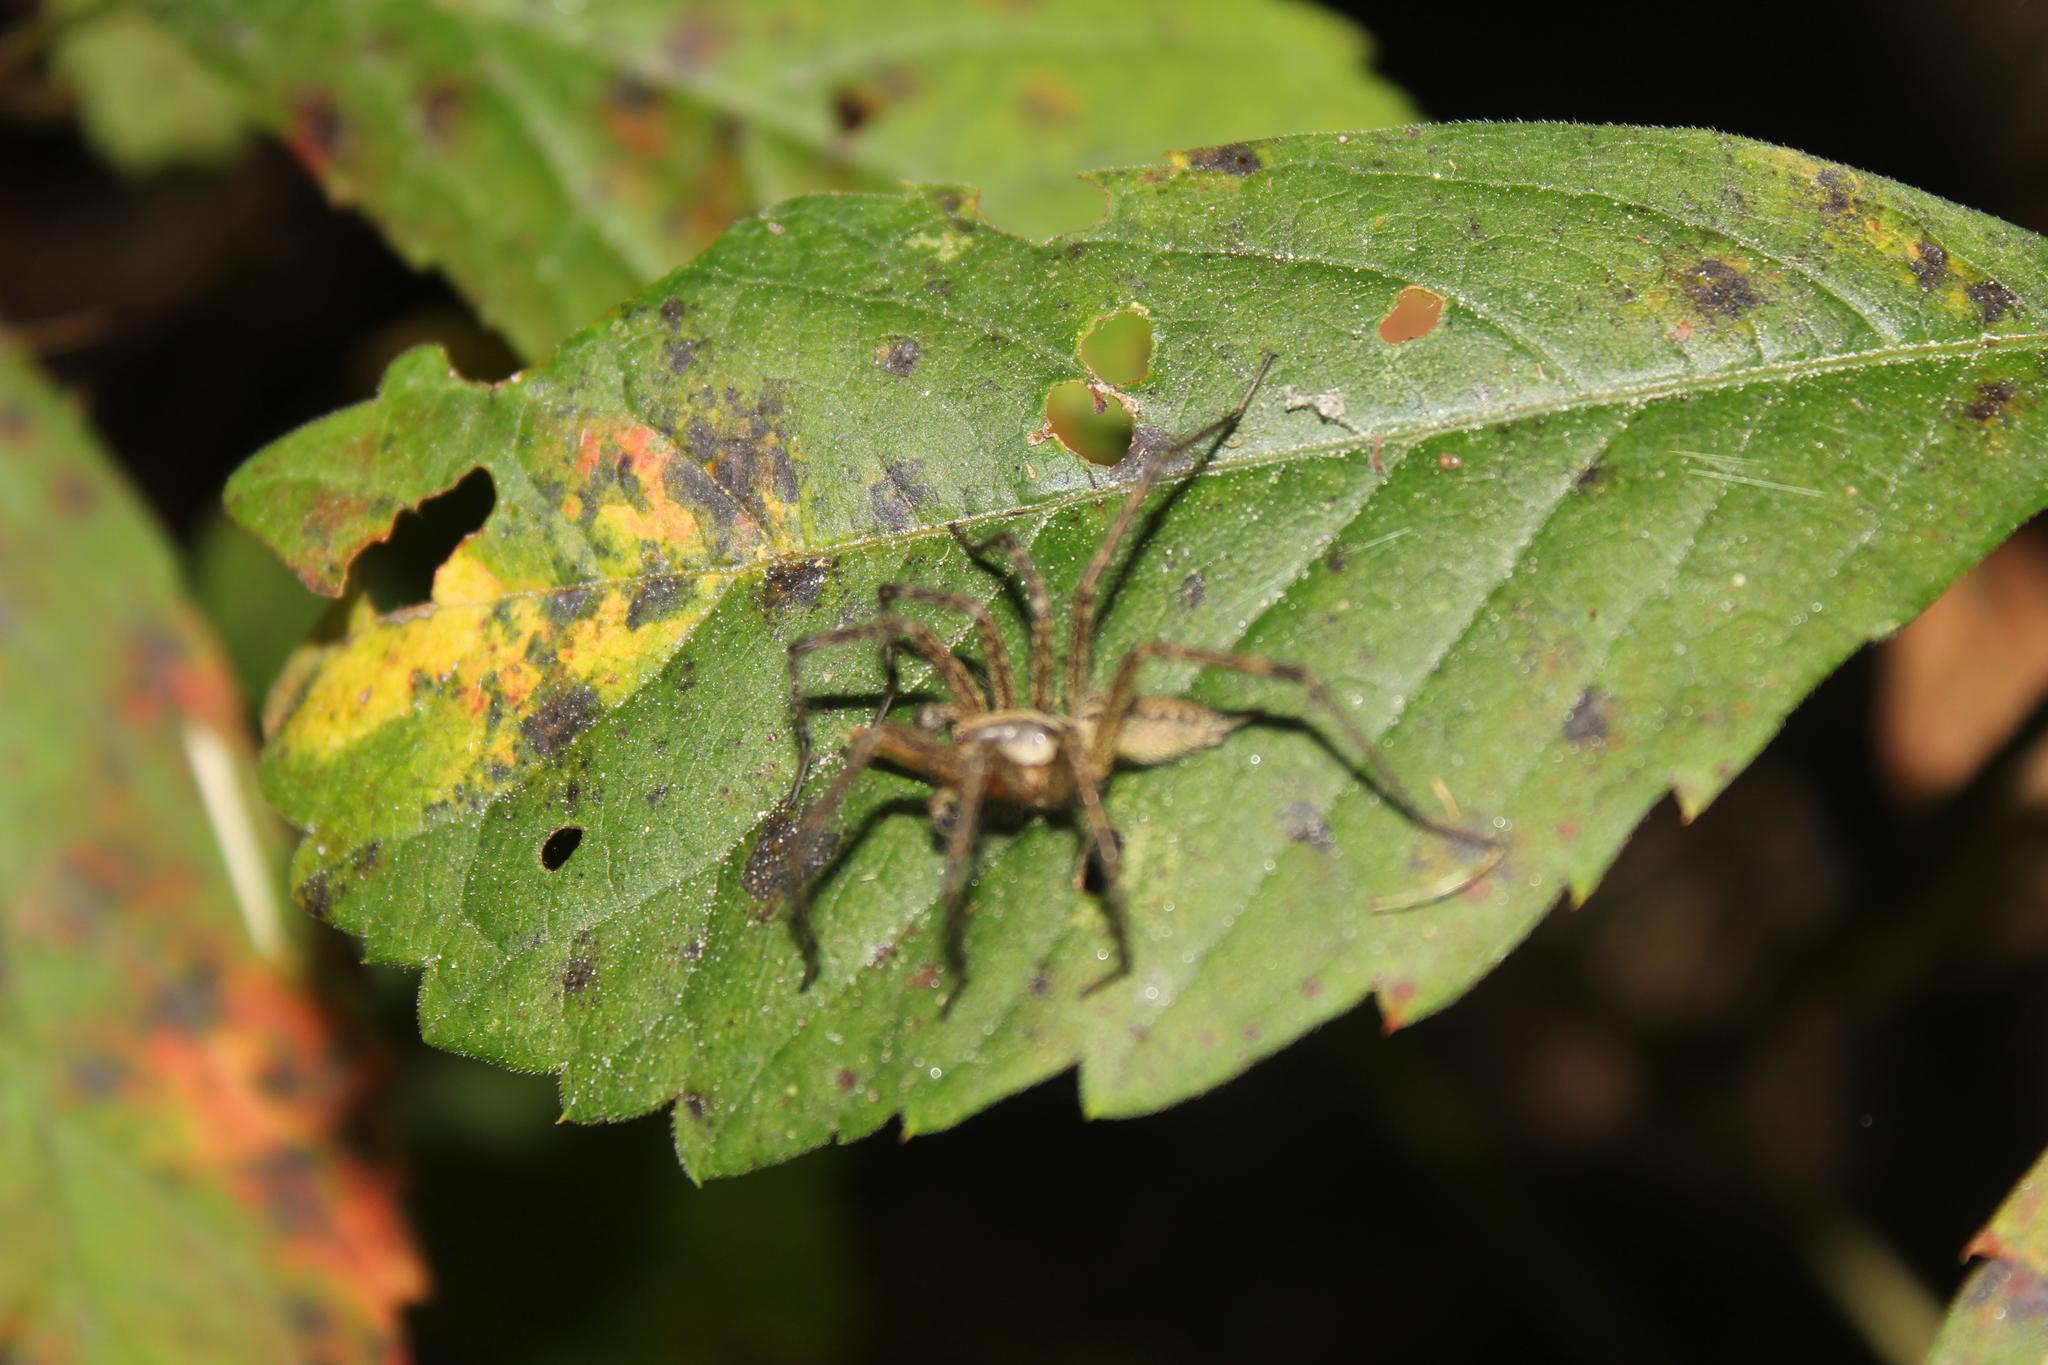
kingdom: Animalia
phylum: Arthropoda
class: Arachnida
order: Araneae
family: Agelenidae
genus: Agelenopsis
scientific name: Agelenopsis
